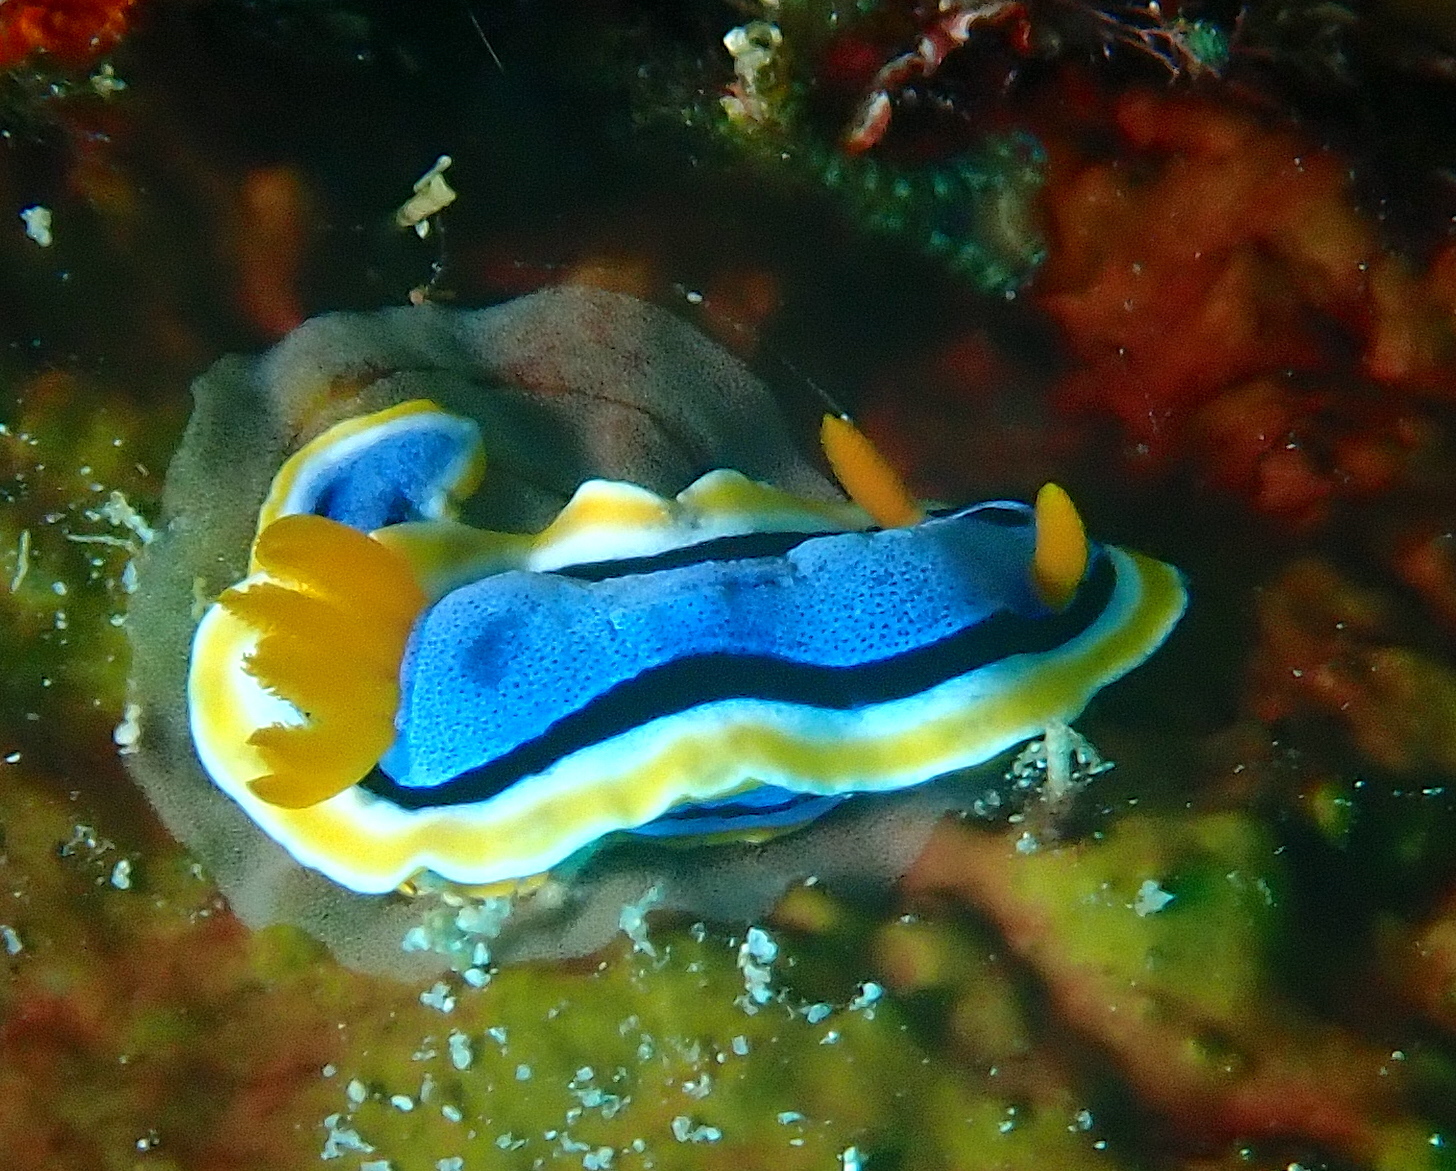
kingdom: Animalia
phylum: Mollusca
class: Gastropoda
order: Nudibranchia
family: Chromodorididae
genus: Chromodoris
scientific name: Chromodoris annae
